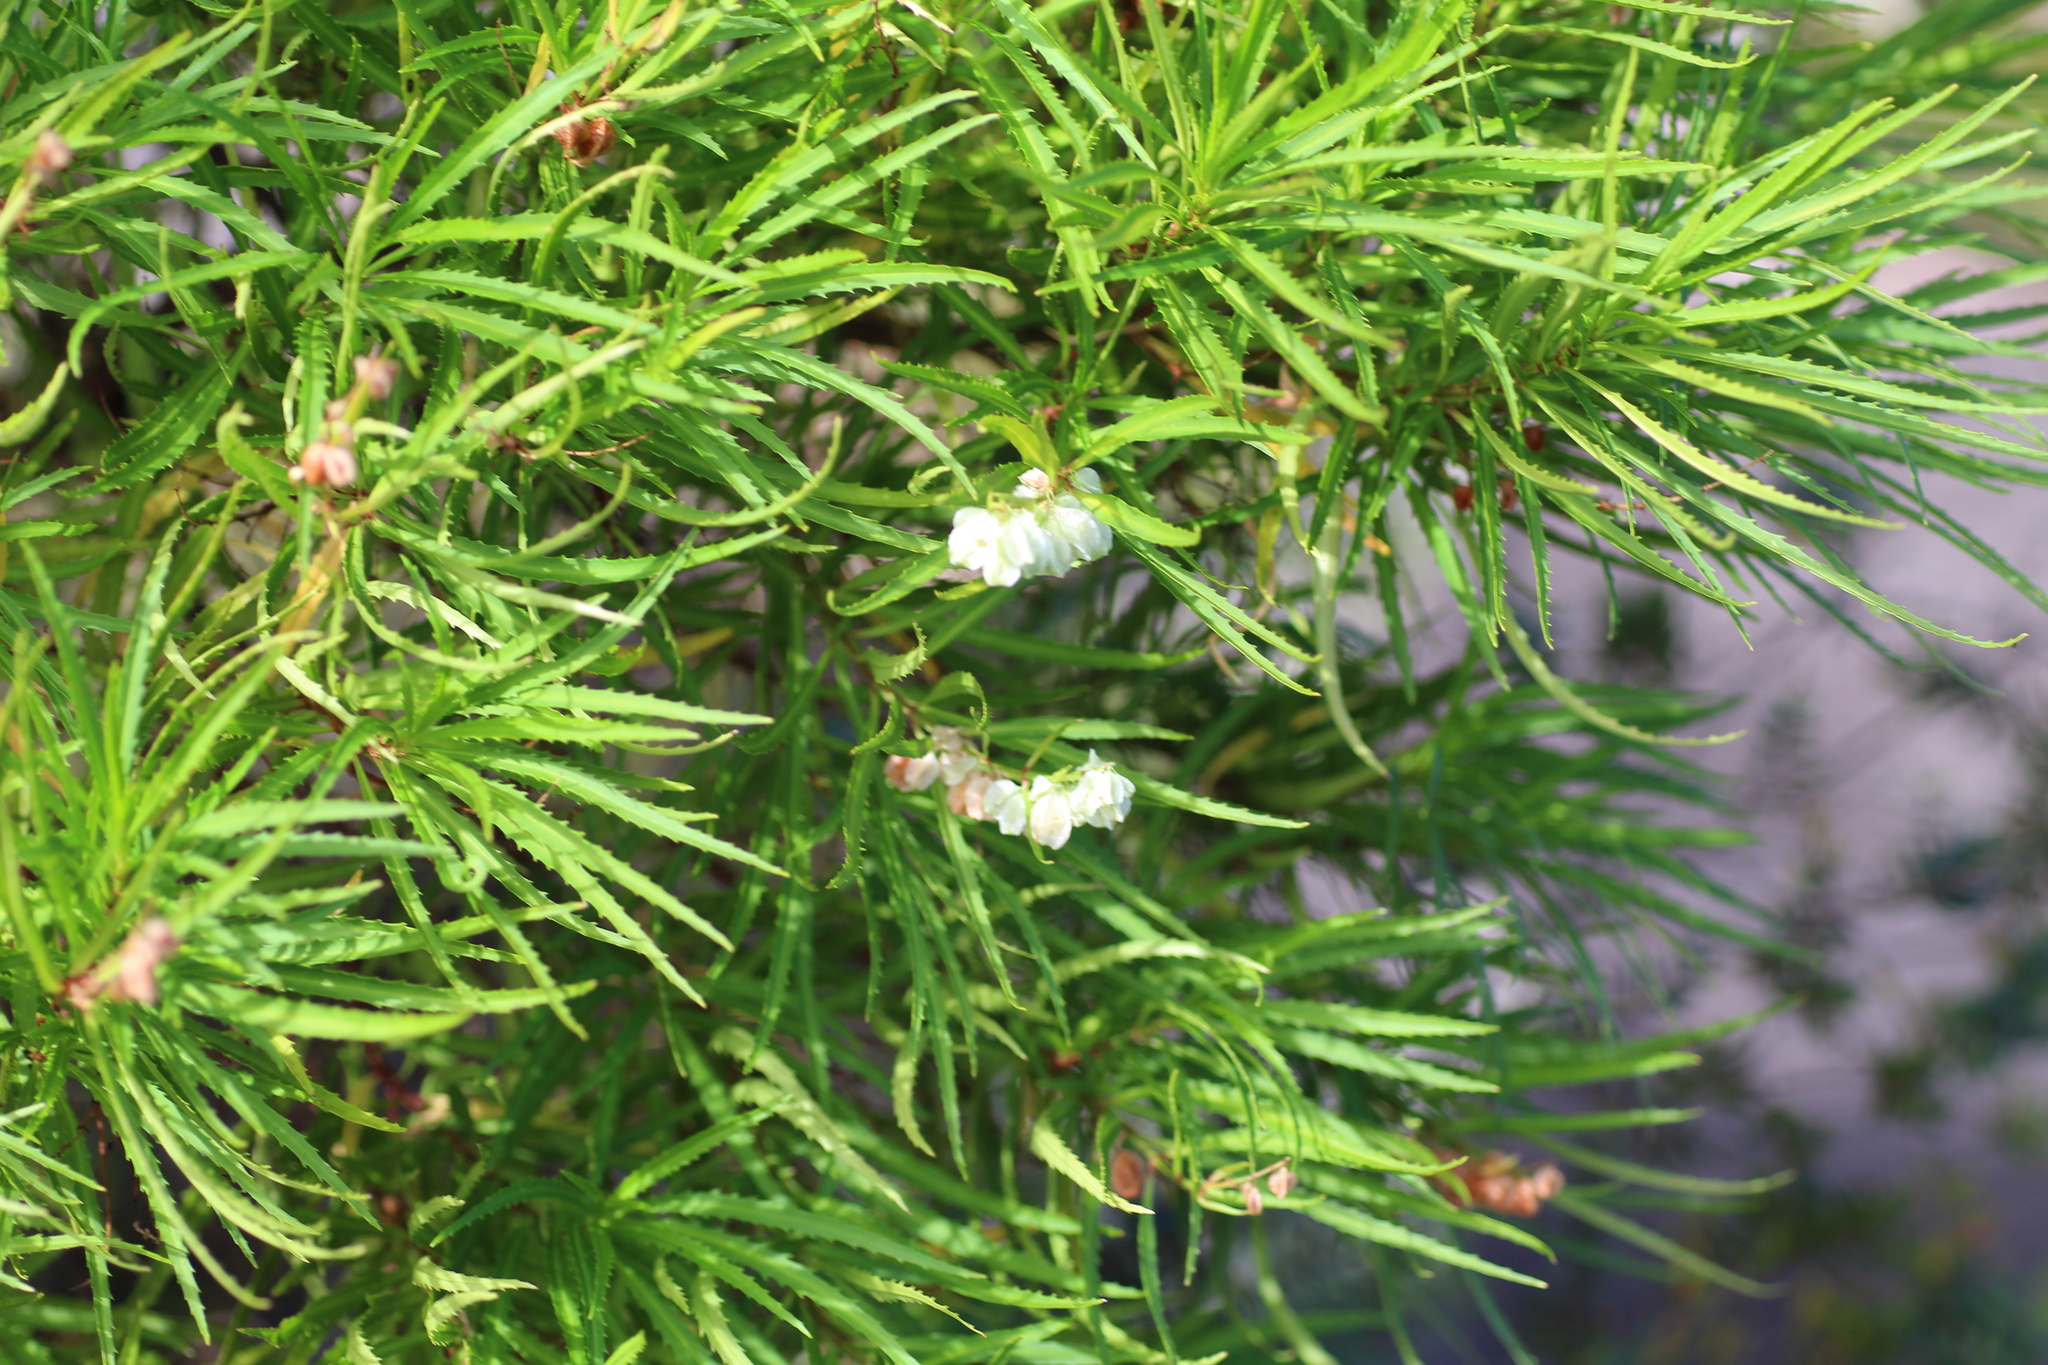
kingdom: Plantae
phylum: Tracheophyta
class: Magnoliopsida
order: Saxifragales
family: Haloragaceae
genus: Glischrocaryon
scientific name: Glischrocaryon racemosum
